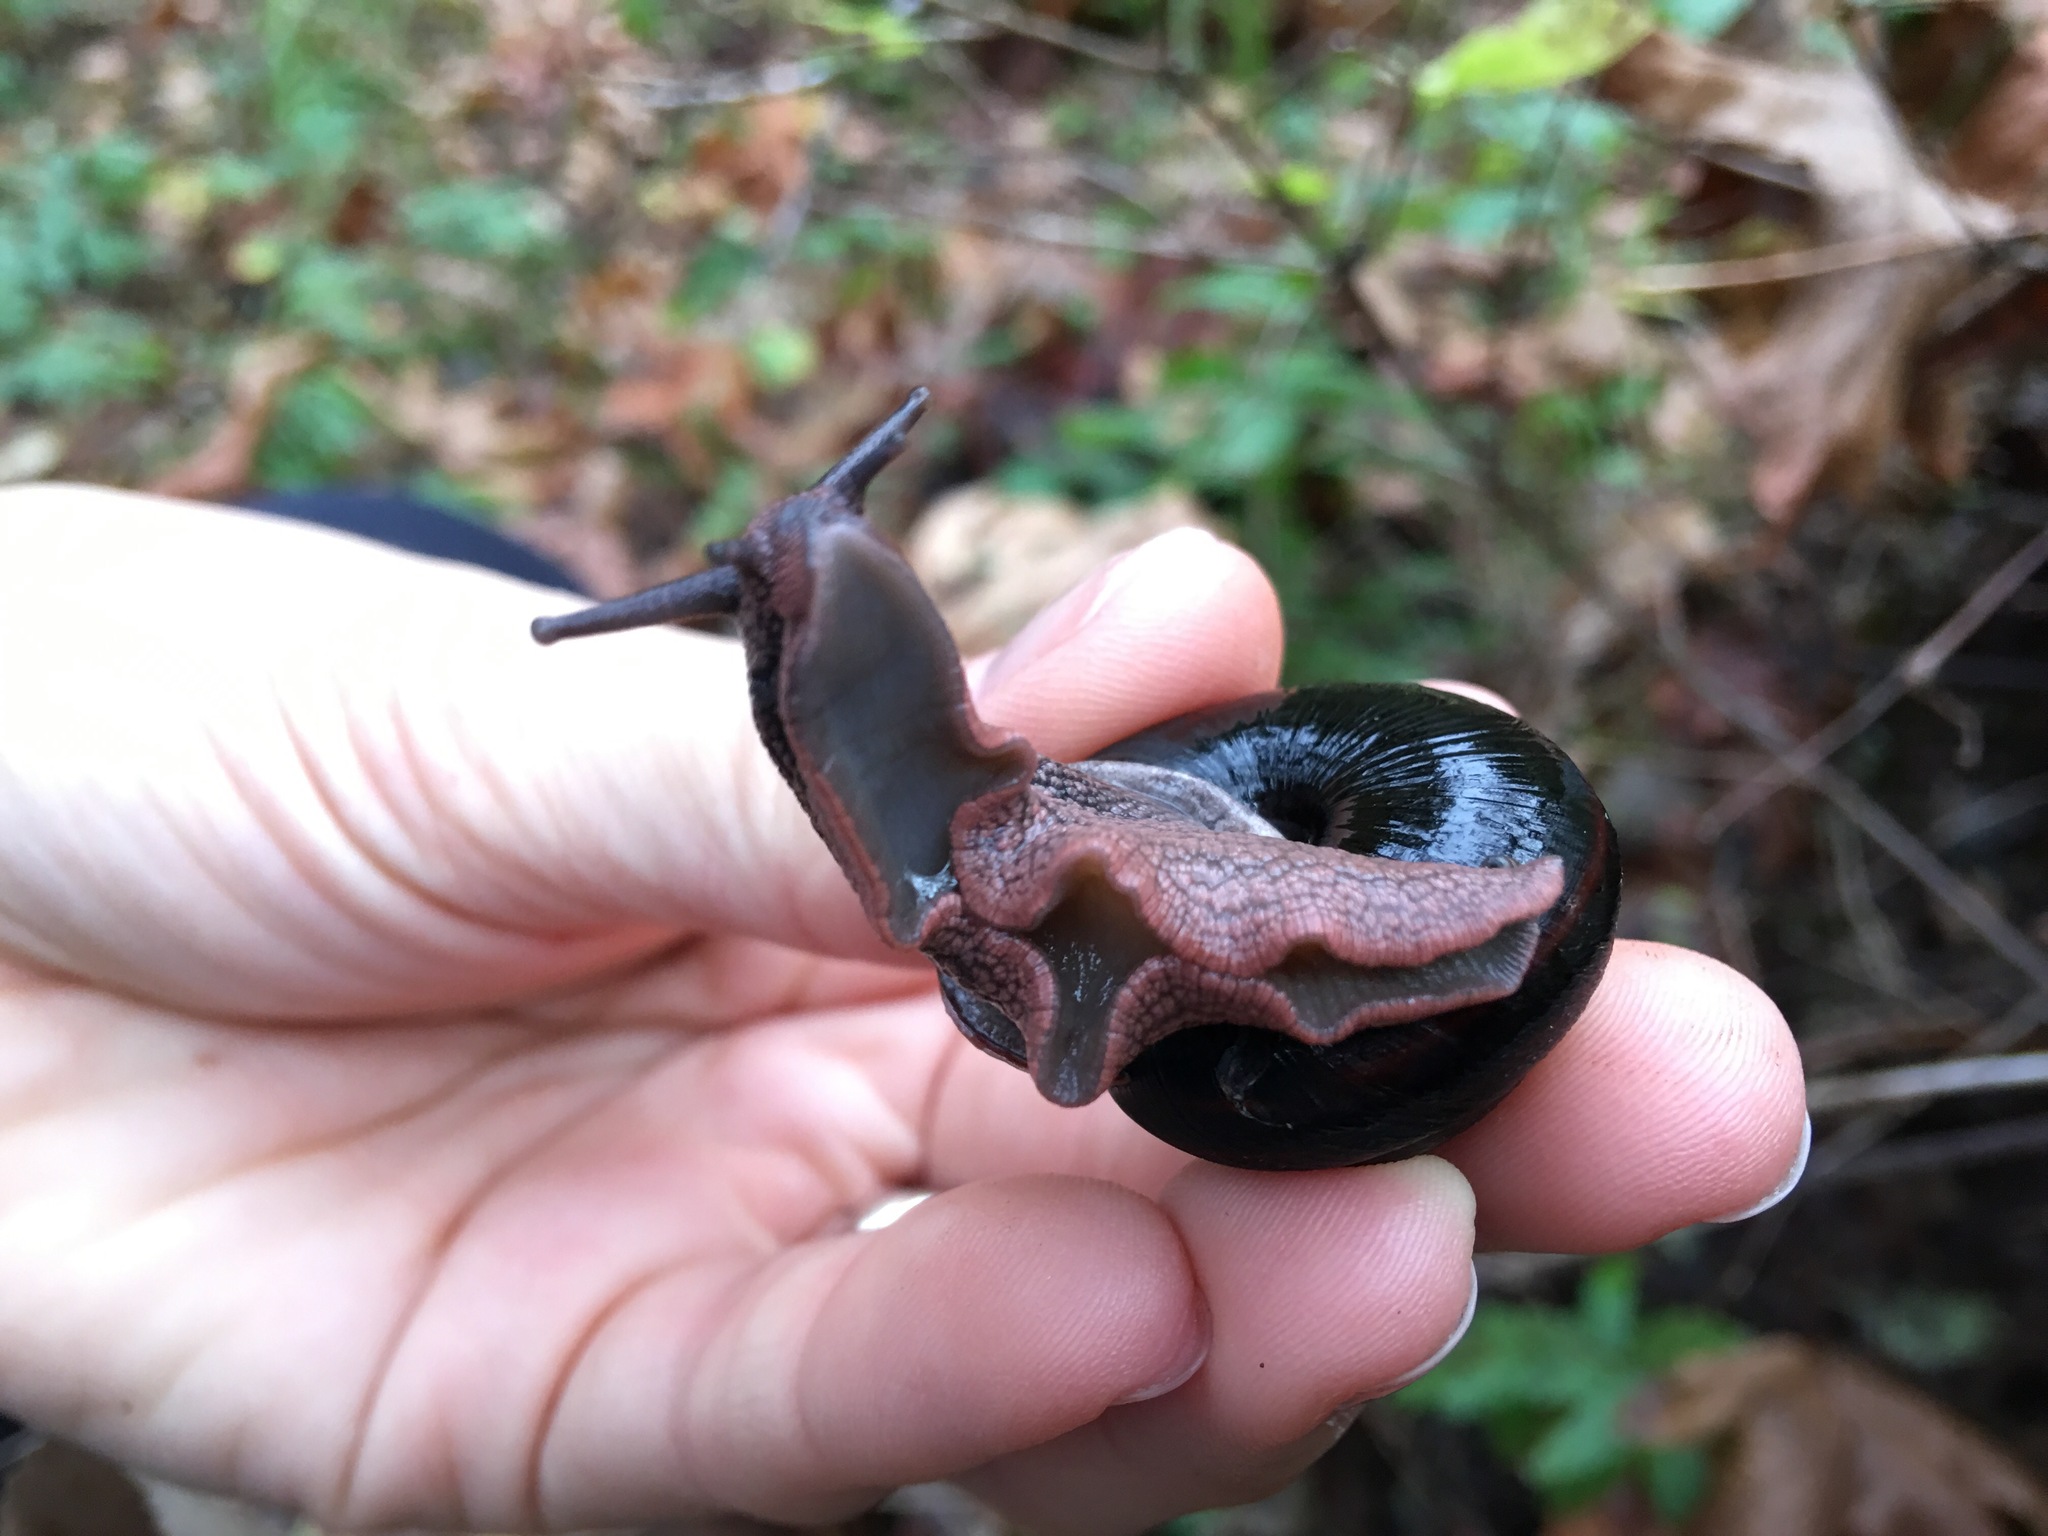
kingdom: Animalia
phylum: Mollusca
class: Gastropoda
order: Stylommatophora
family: Xanthonychidae
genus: Monadenia
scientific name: Monadenia fidelis
